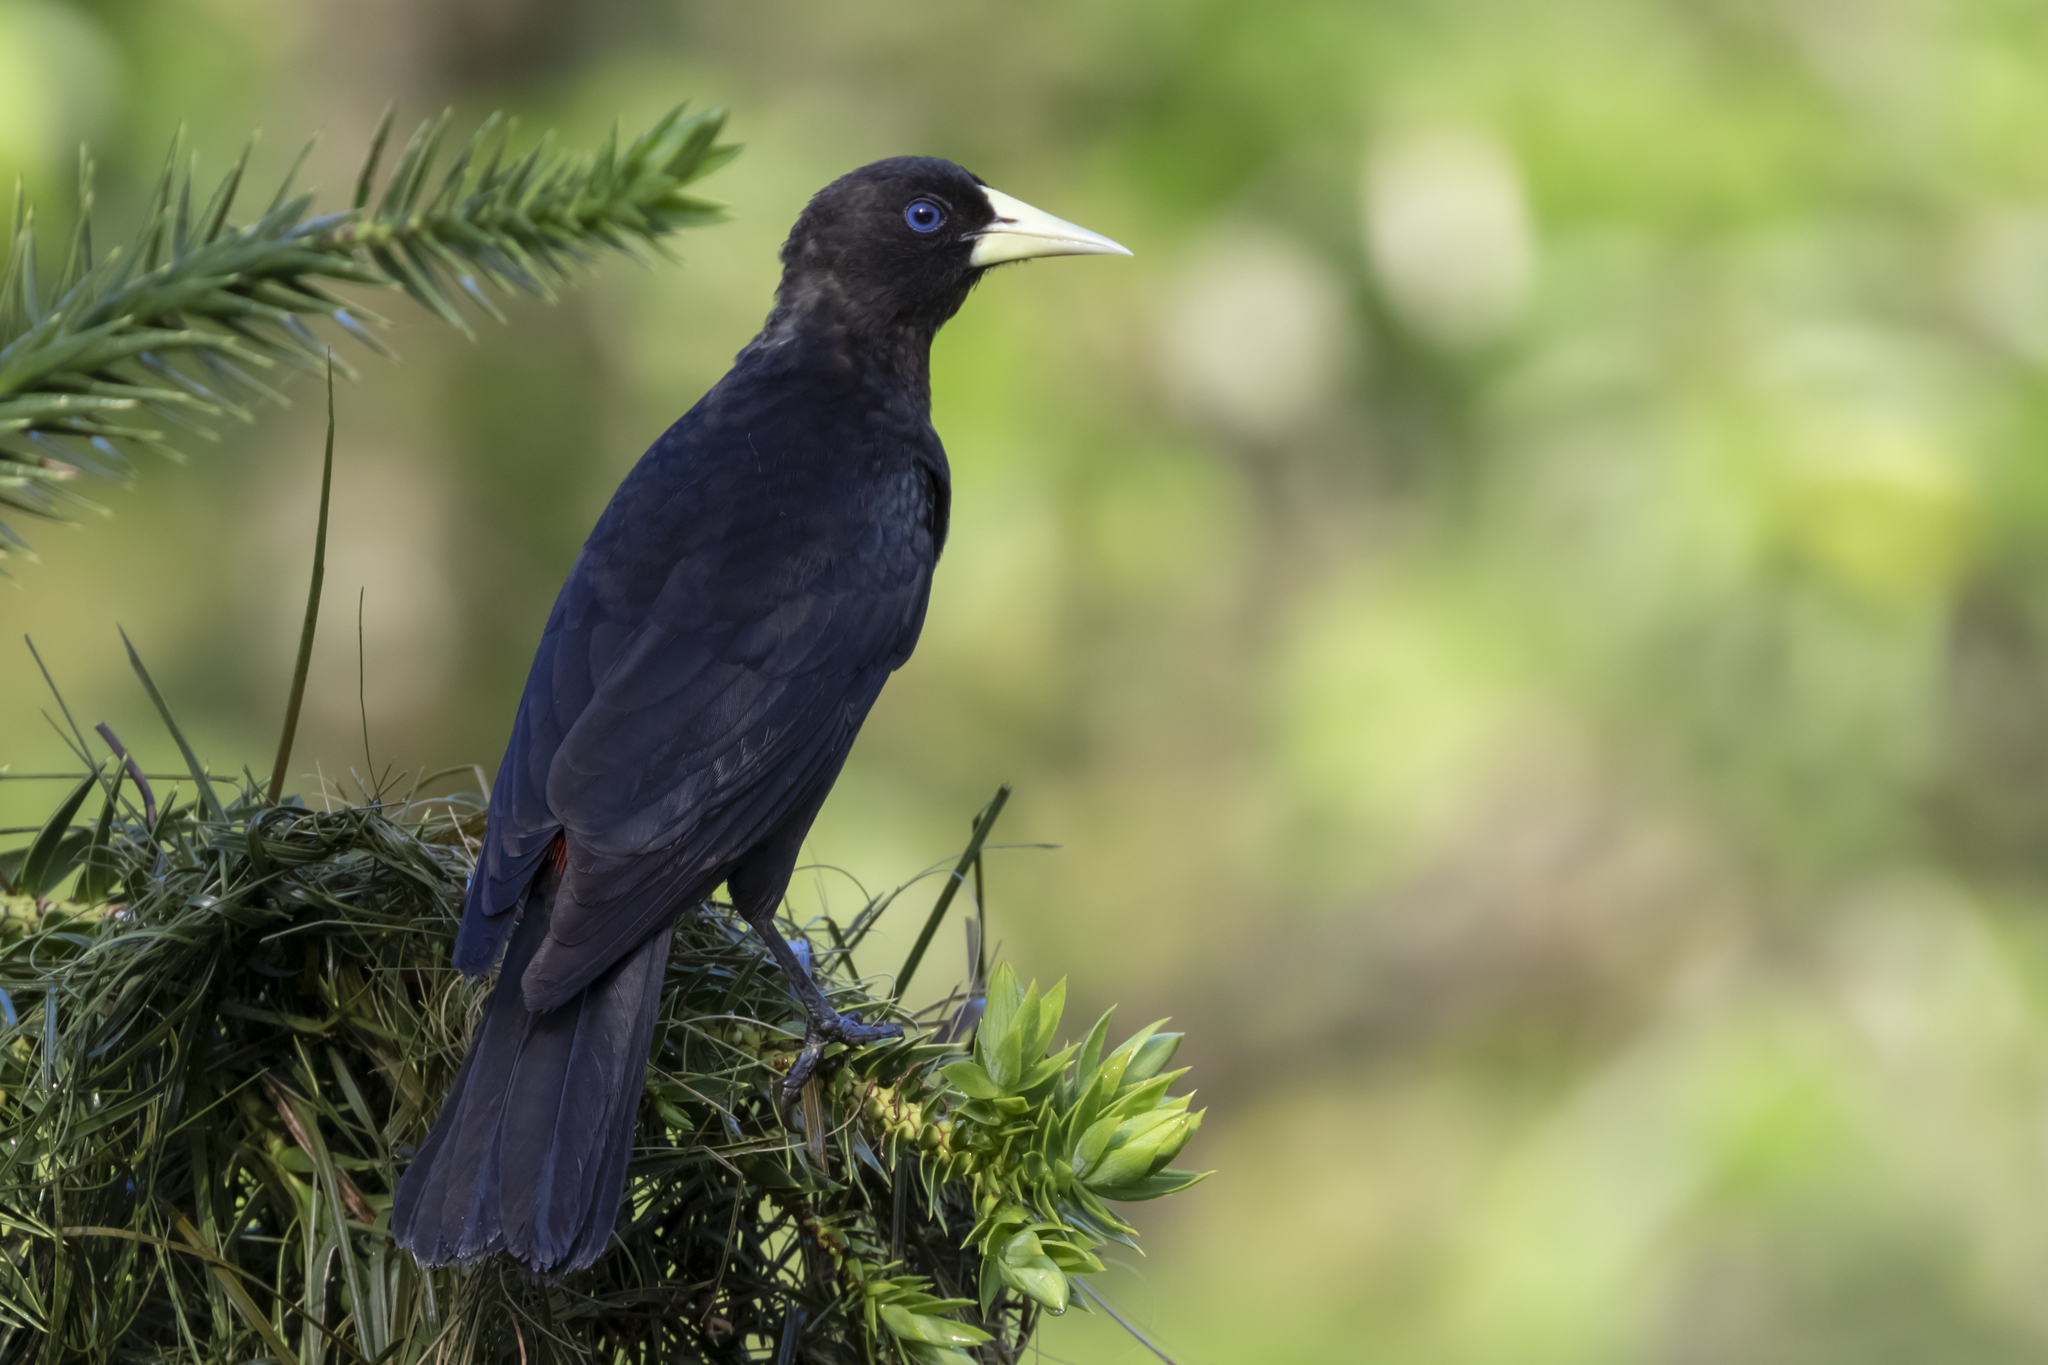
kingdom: Animalia
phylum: Chordata
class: Aves
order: Passeriformes
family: Icteridae
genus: Cacicus
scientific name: Cacicus haemorrhous
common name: Red-rumped cacique
